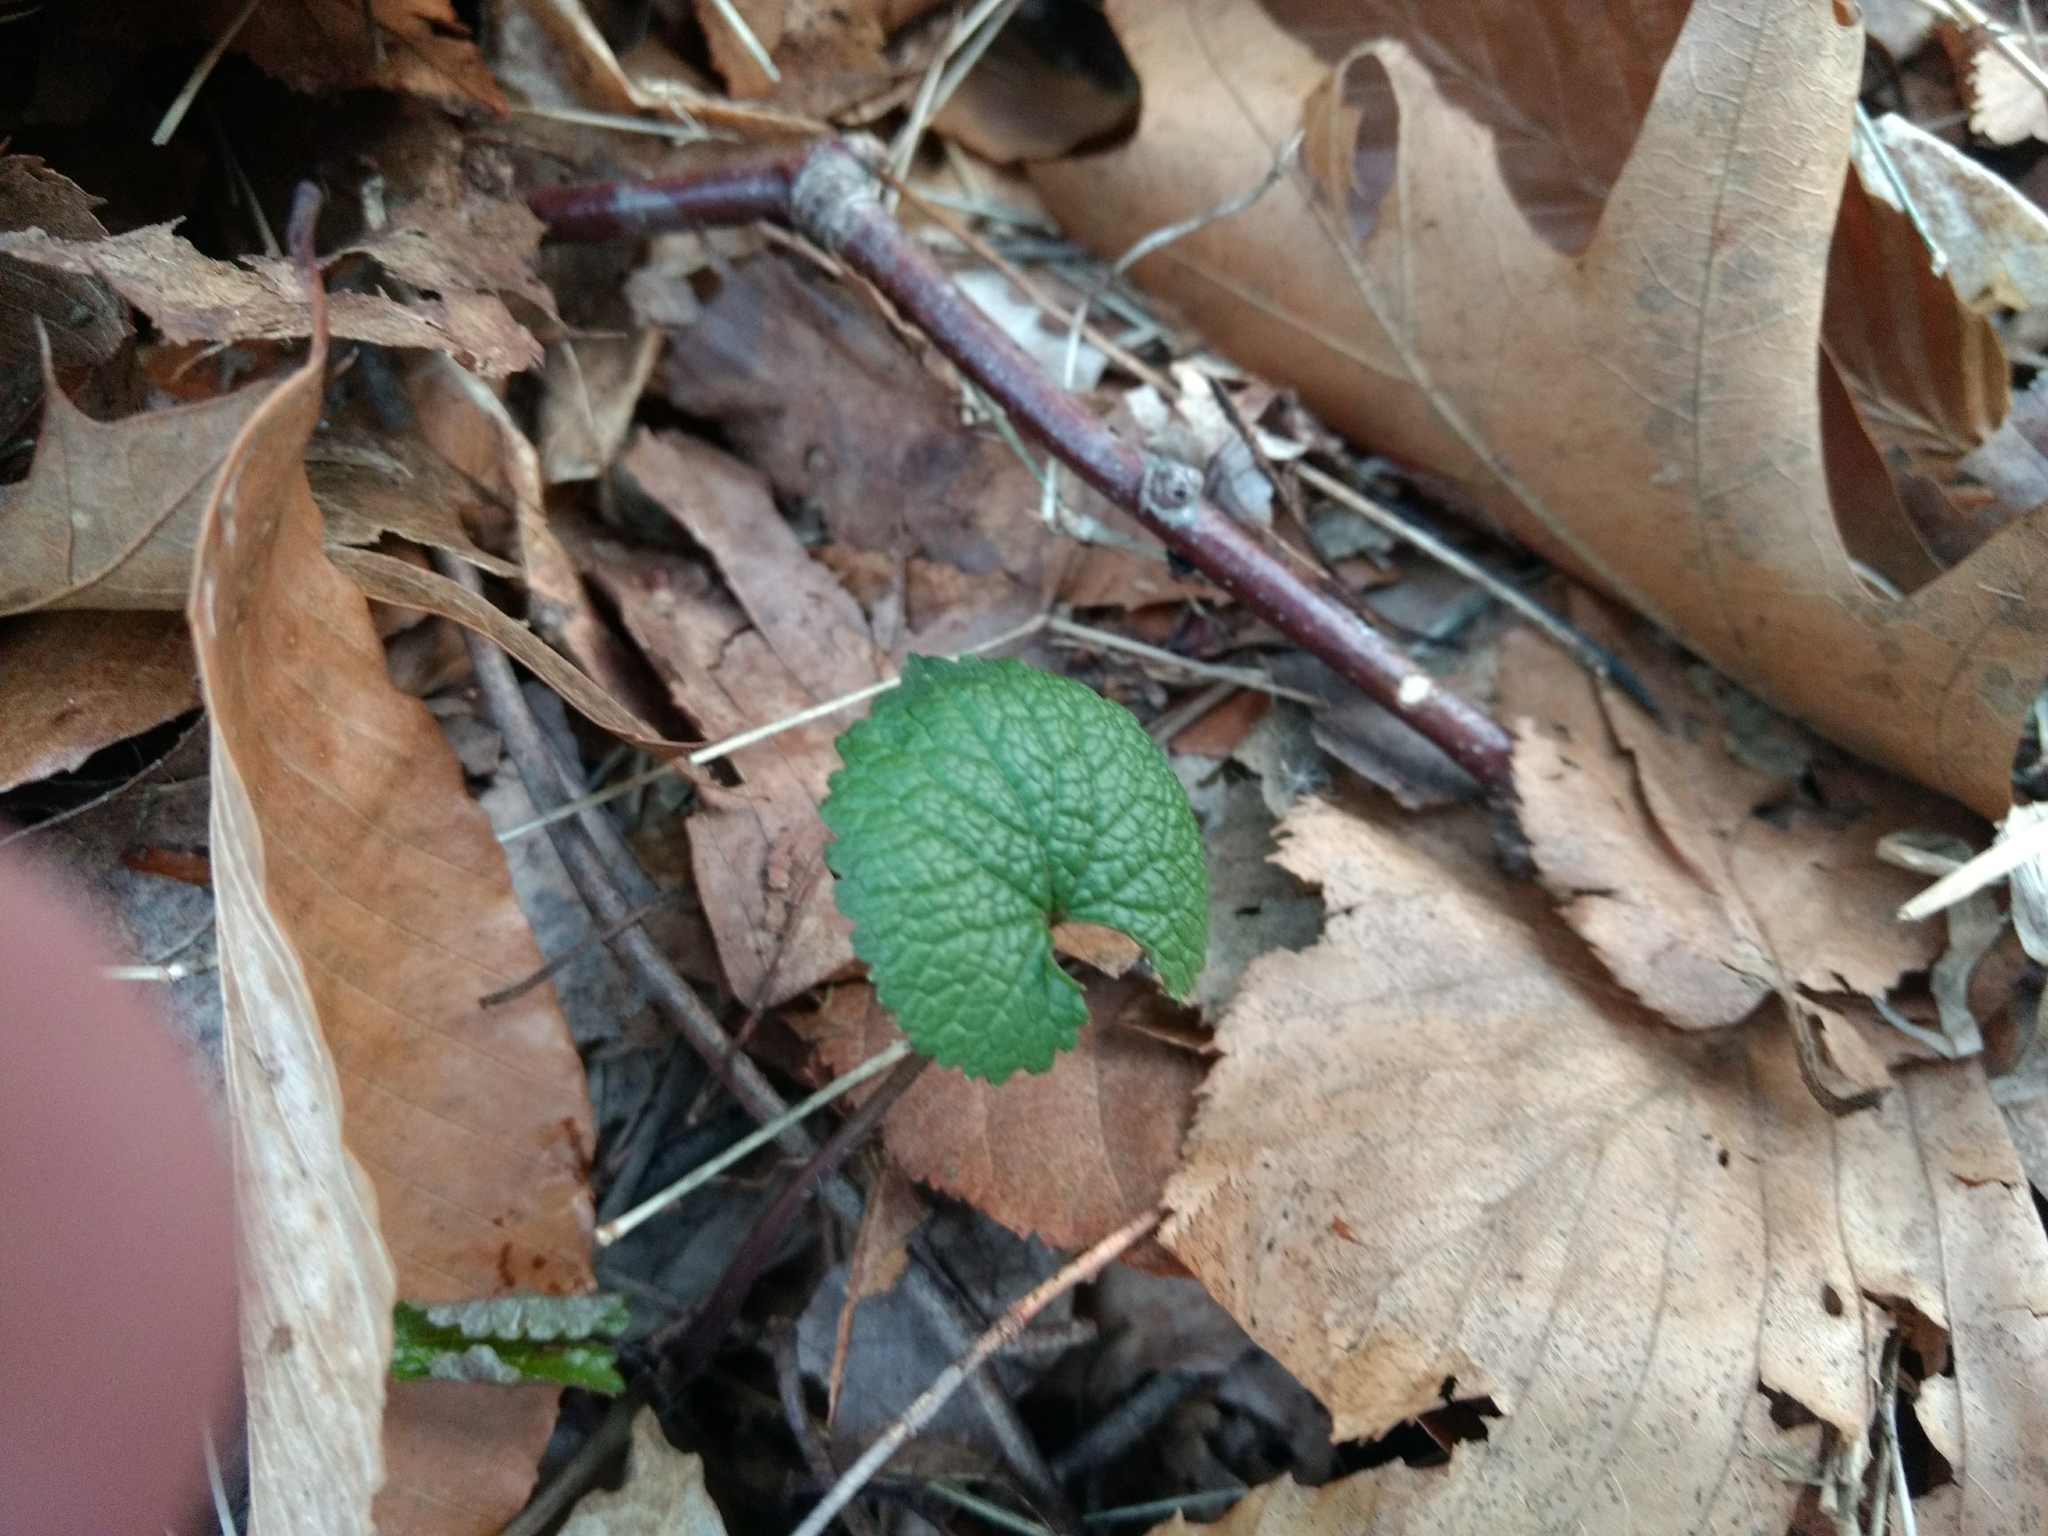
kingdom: Plantae
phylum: Tracheophyta
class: Magnoliopsida
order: Brassicales
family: Brassicaceae
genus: Alliaria
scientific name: Alliaria petiolata
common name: Garlic mustard
